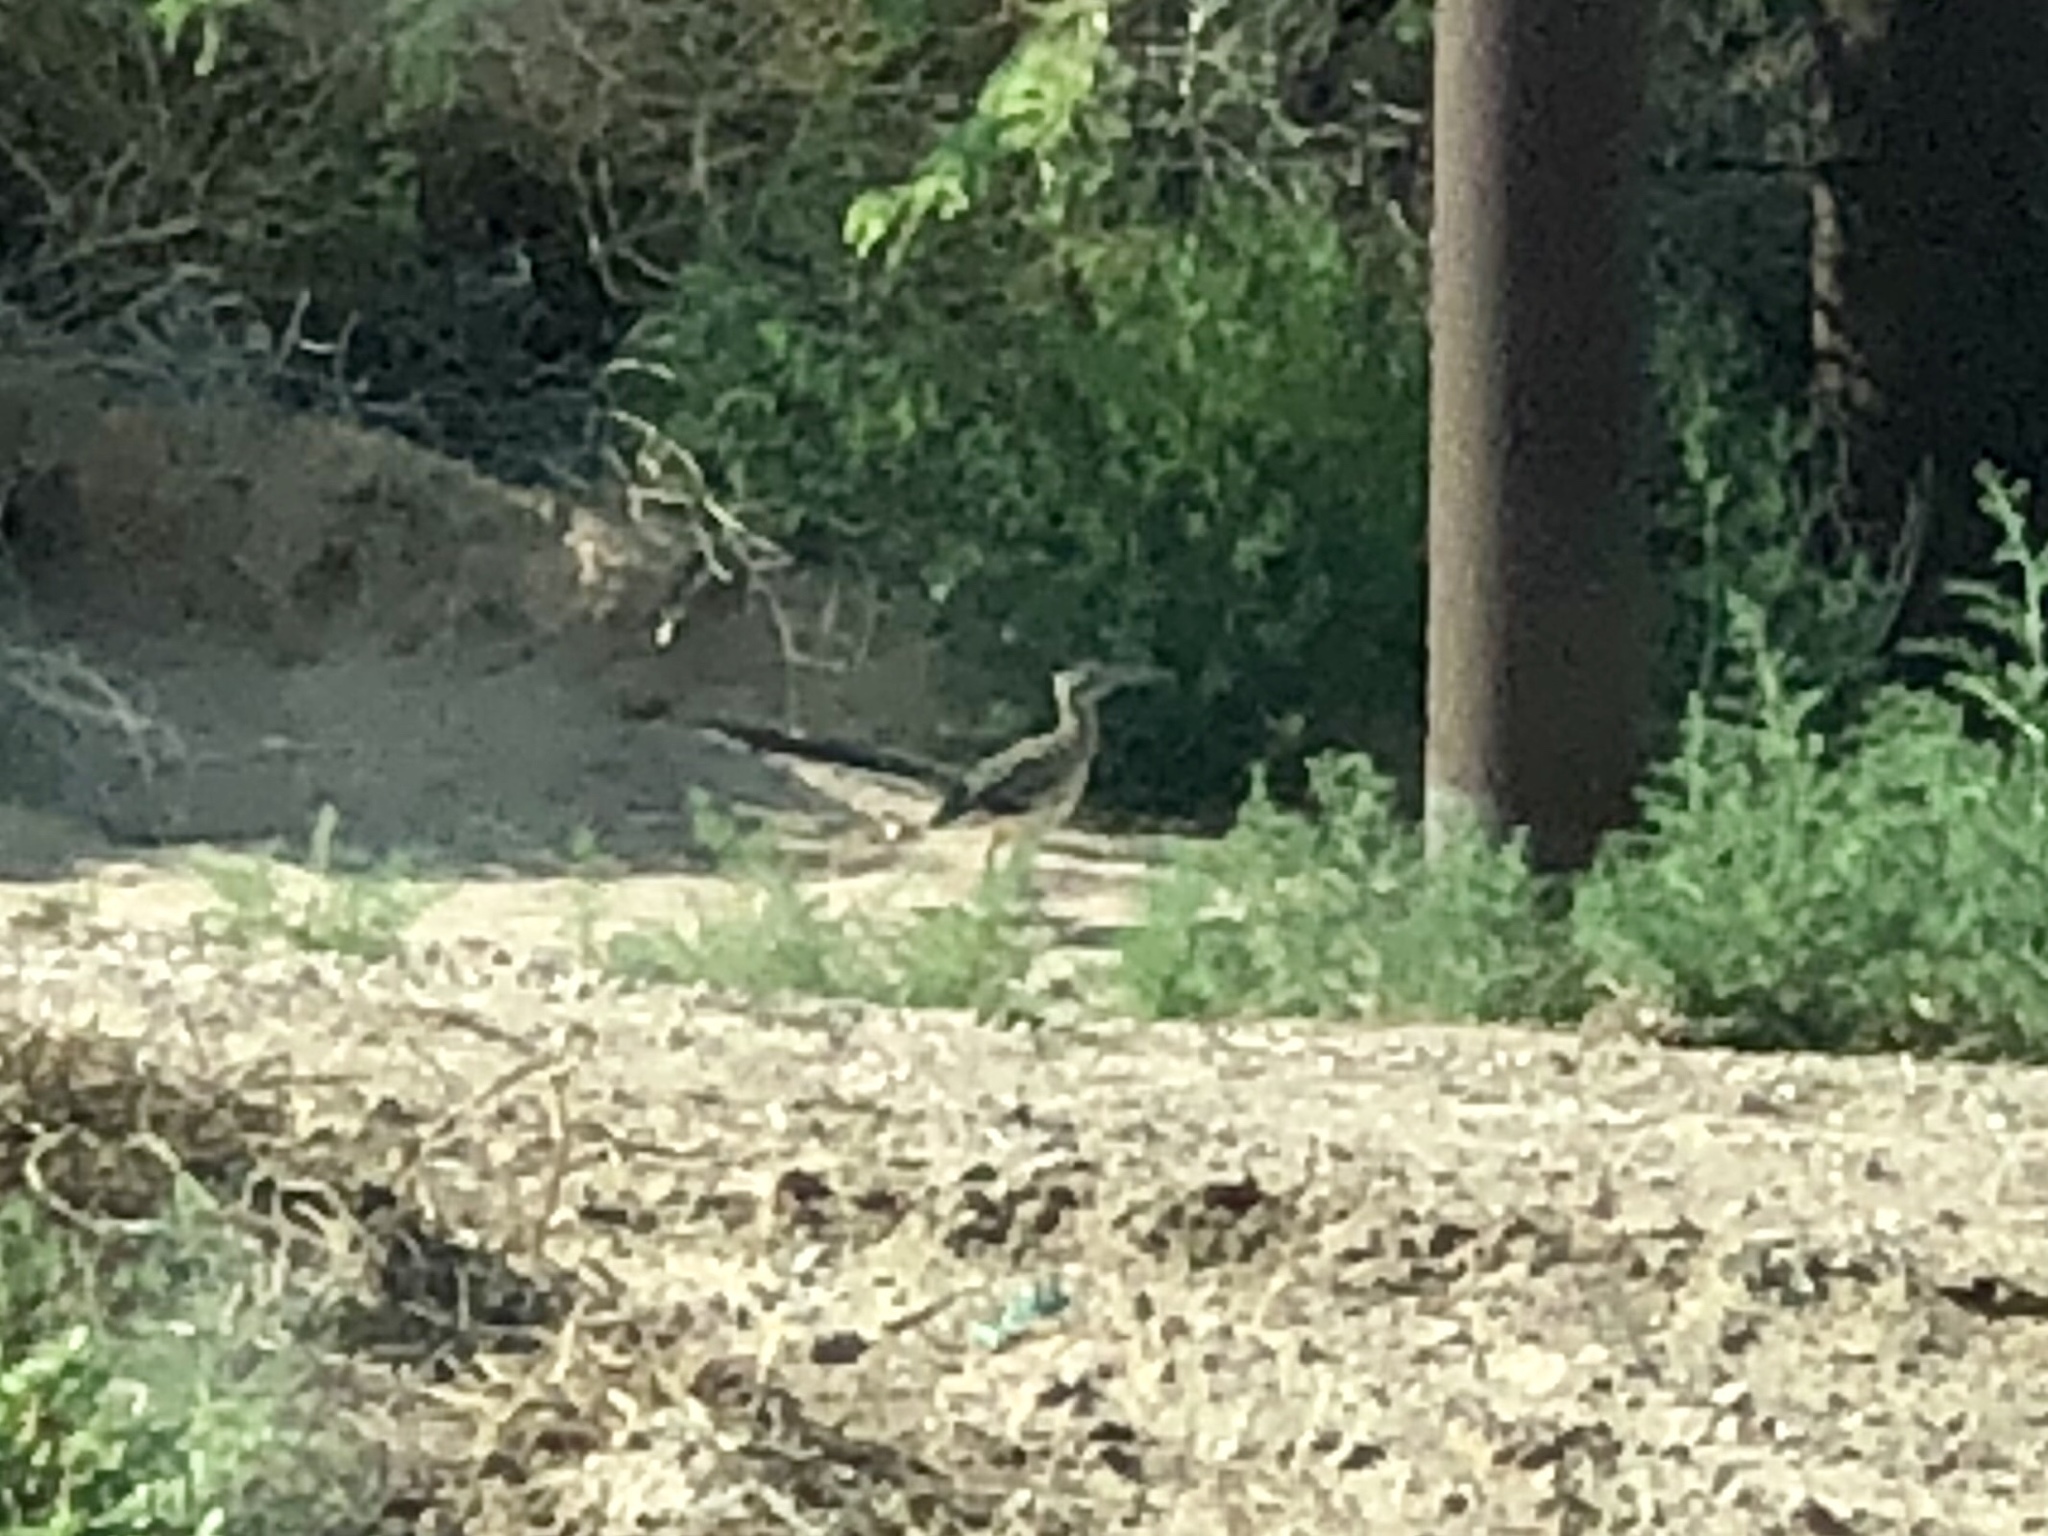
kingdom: Animalia
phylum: Chordata
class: Aves
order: Cuculiformes
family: Cuculidae
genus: Geococcyx
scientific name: Geococcyx californianus
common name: Greater roadrunner
